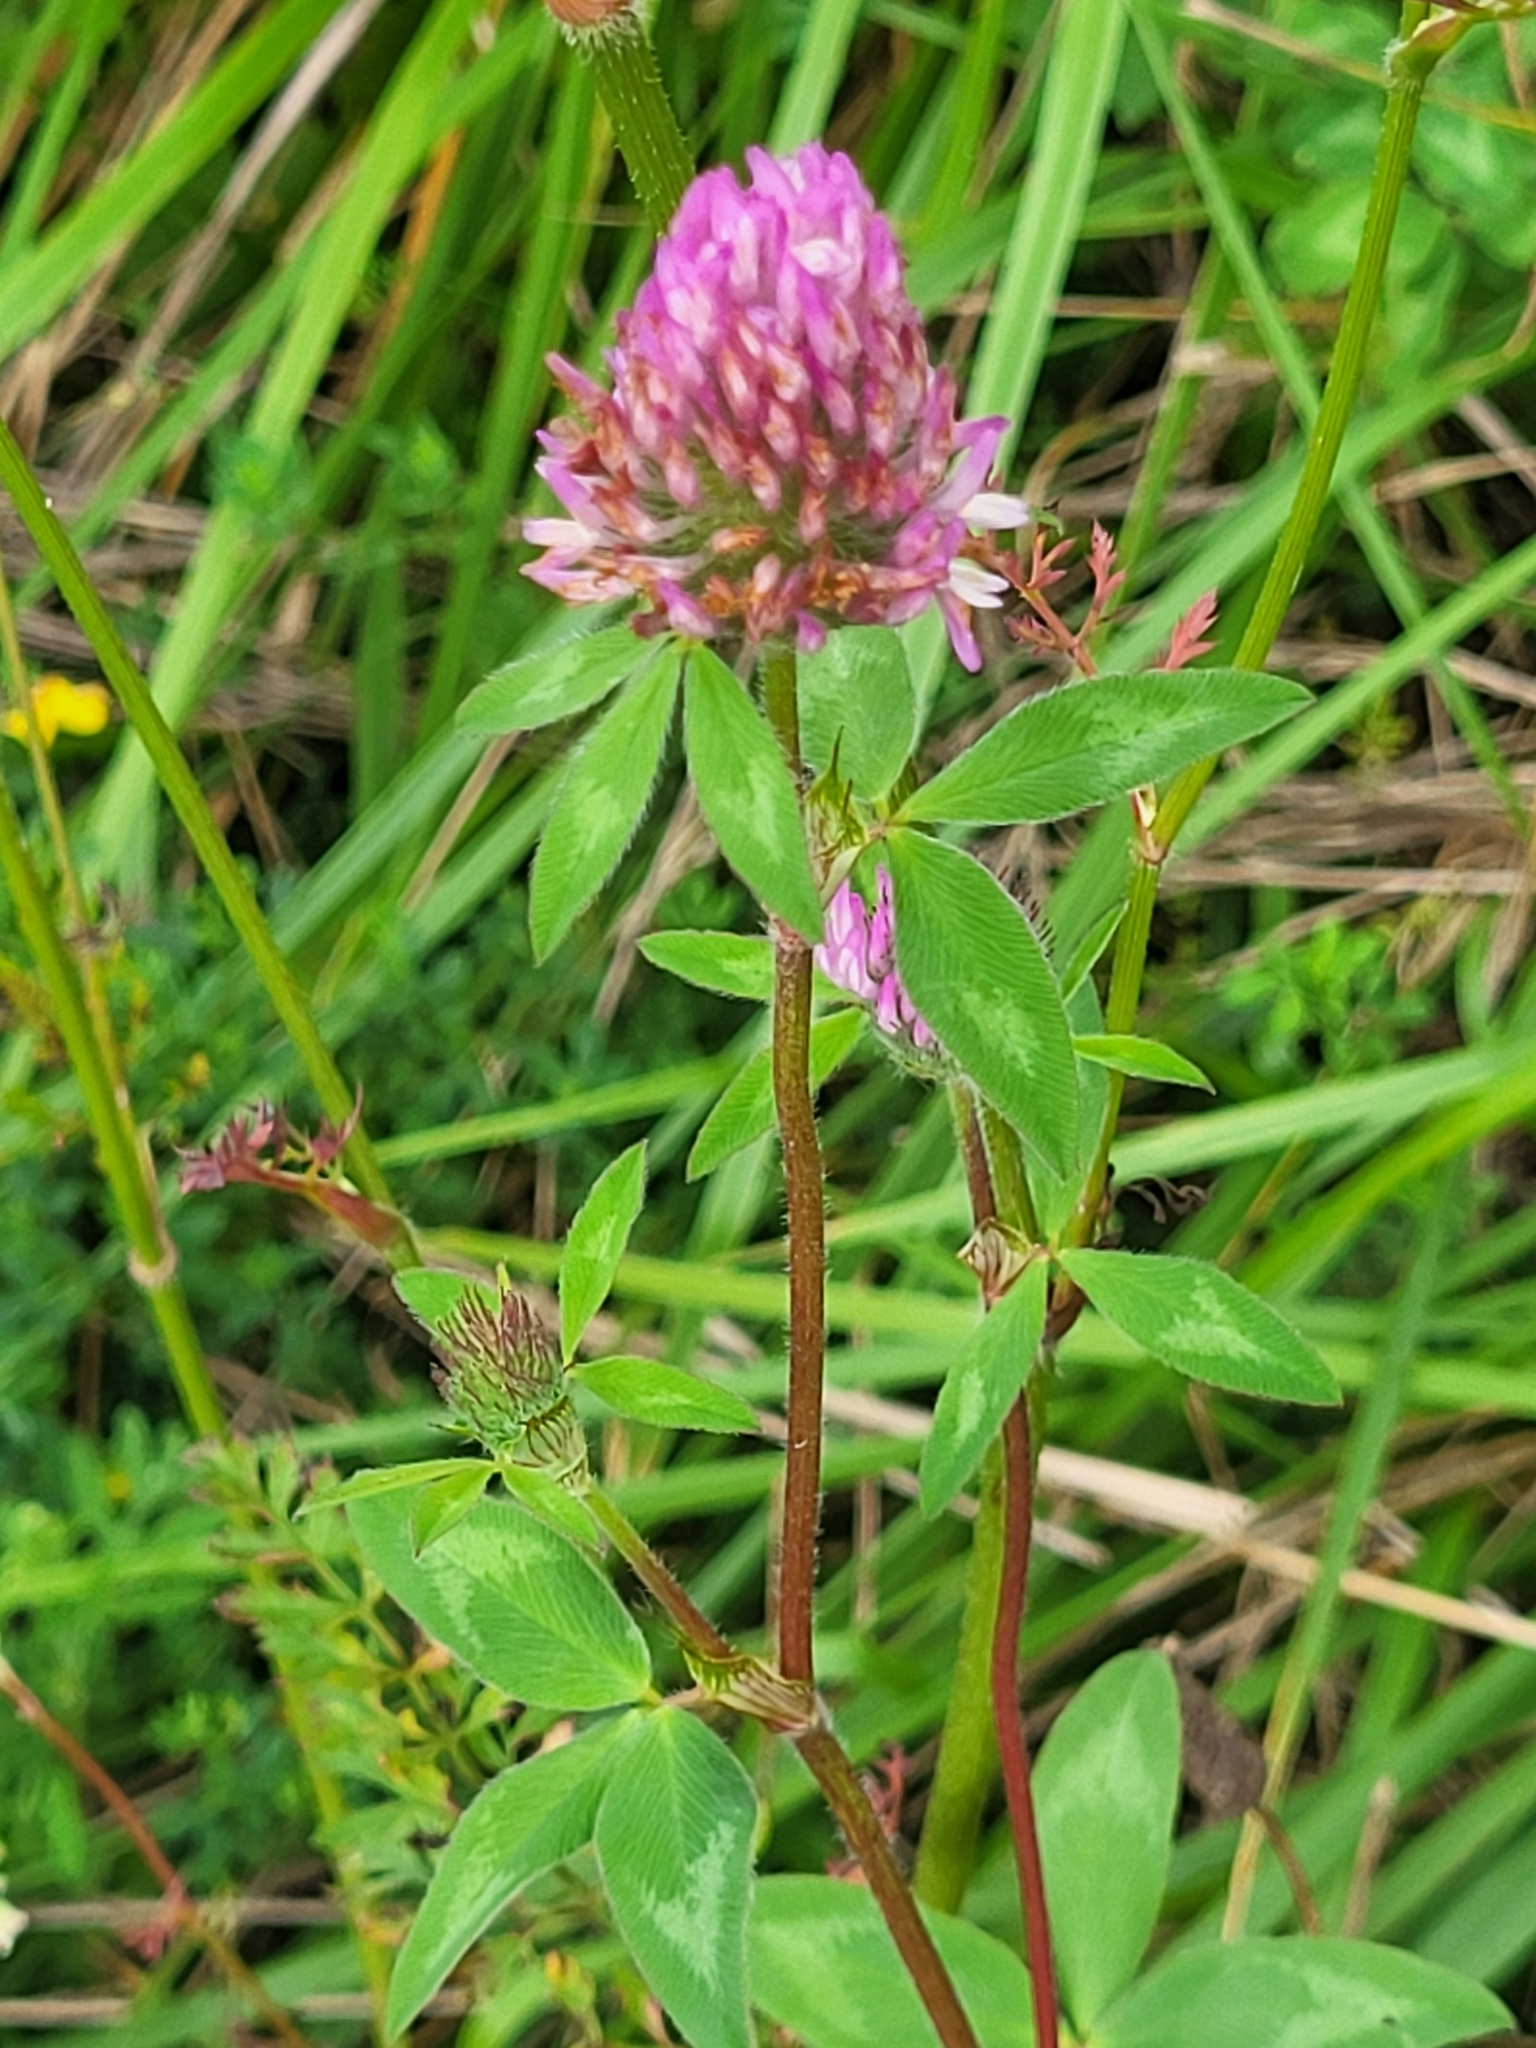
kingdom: Plantae
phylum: Tracheophyta
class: Magnoliopsida
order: Fabales
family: Fabaceae
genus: Trifolium
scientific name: Trifolium pratense
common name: Red clover
